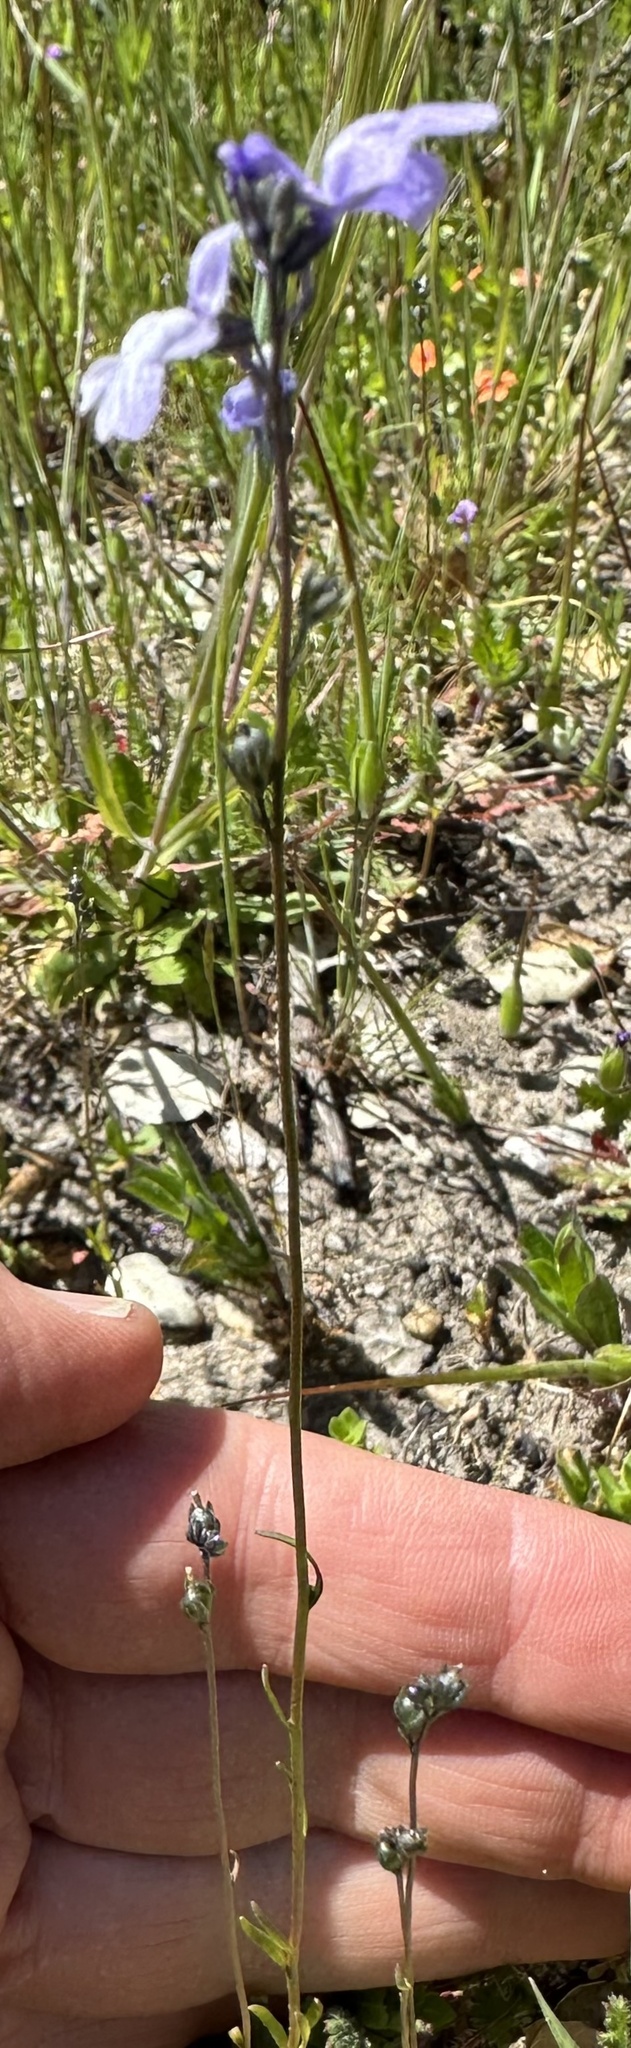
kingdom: Plantae
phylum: Tracheophyta
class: Magnoliopsida
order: Lamiales
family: Plantaginaceae
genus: Nuttallanthus
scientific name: Nuttallanthus texanus
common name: Texas toadflax
